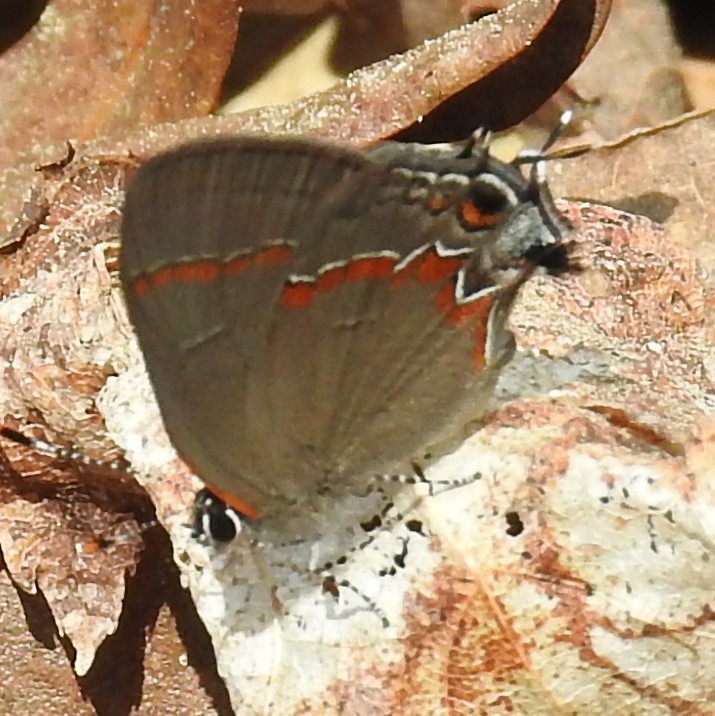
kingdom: Animalia
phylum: Arthropoda
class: Insecta
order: Lepidoptera
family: Lycaenidae
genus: Calycopis
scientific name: Calycopis cecrops
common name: Red-banded hairstreak
